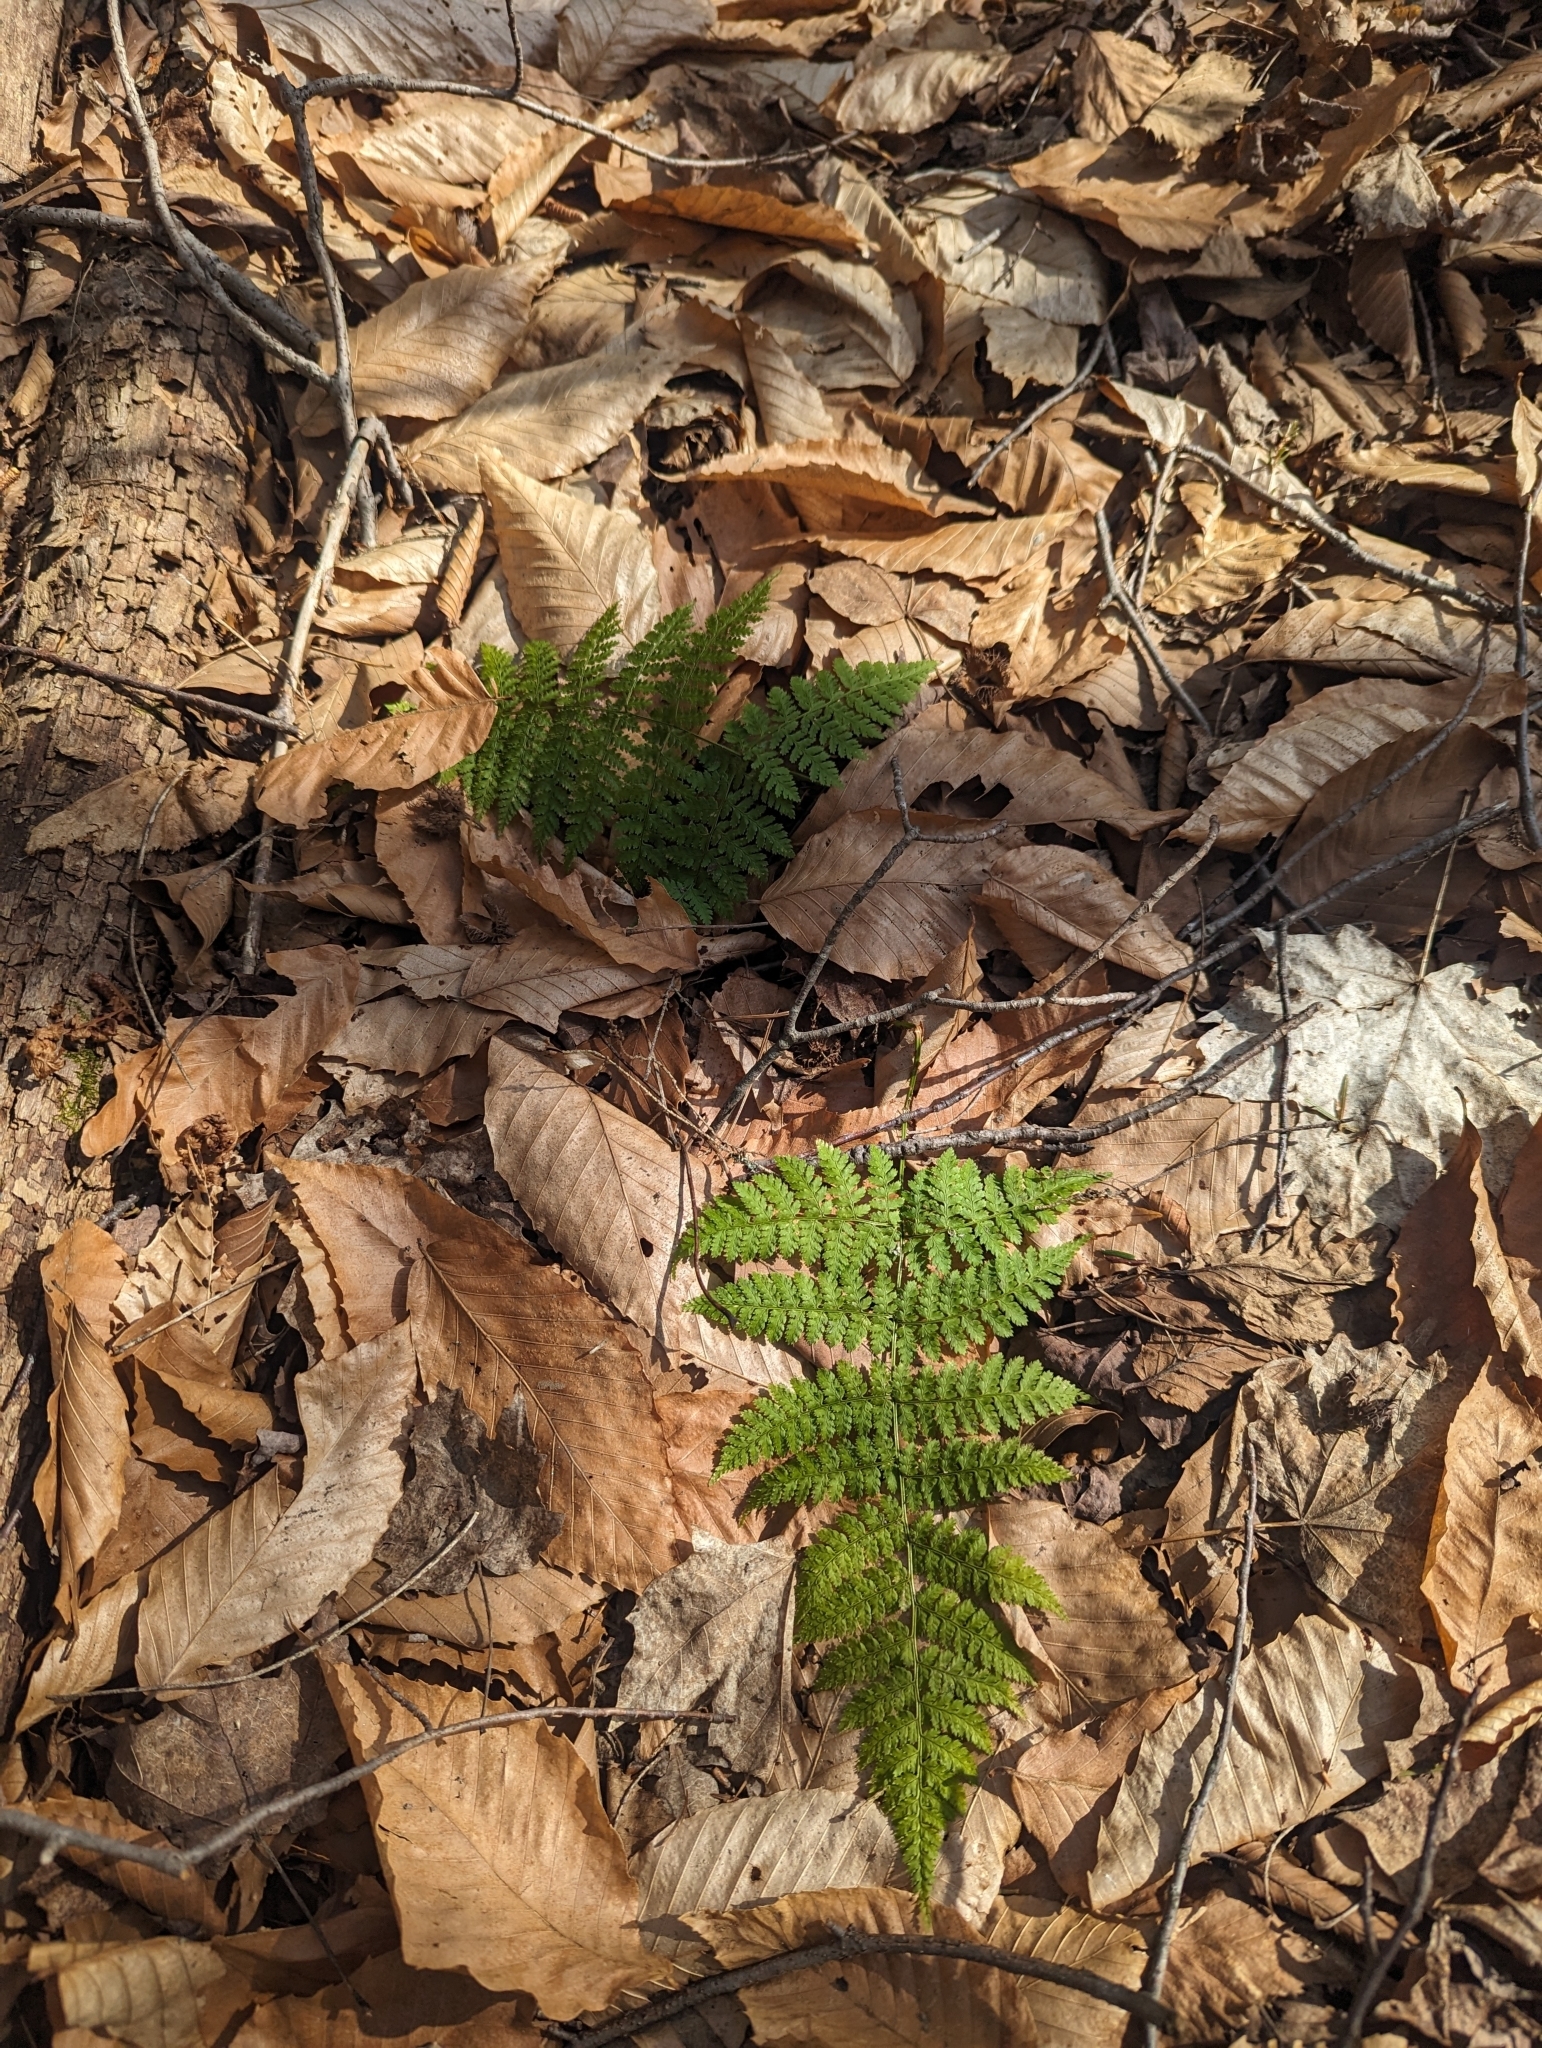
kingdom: Plantae
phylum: Tracheophyta
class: Polypodiopsida
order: Polypodiales
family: Dryopteridaceae
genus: Dryopteris
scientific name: Dryopteris intermedia
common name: Evergreen wood fern
